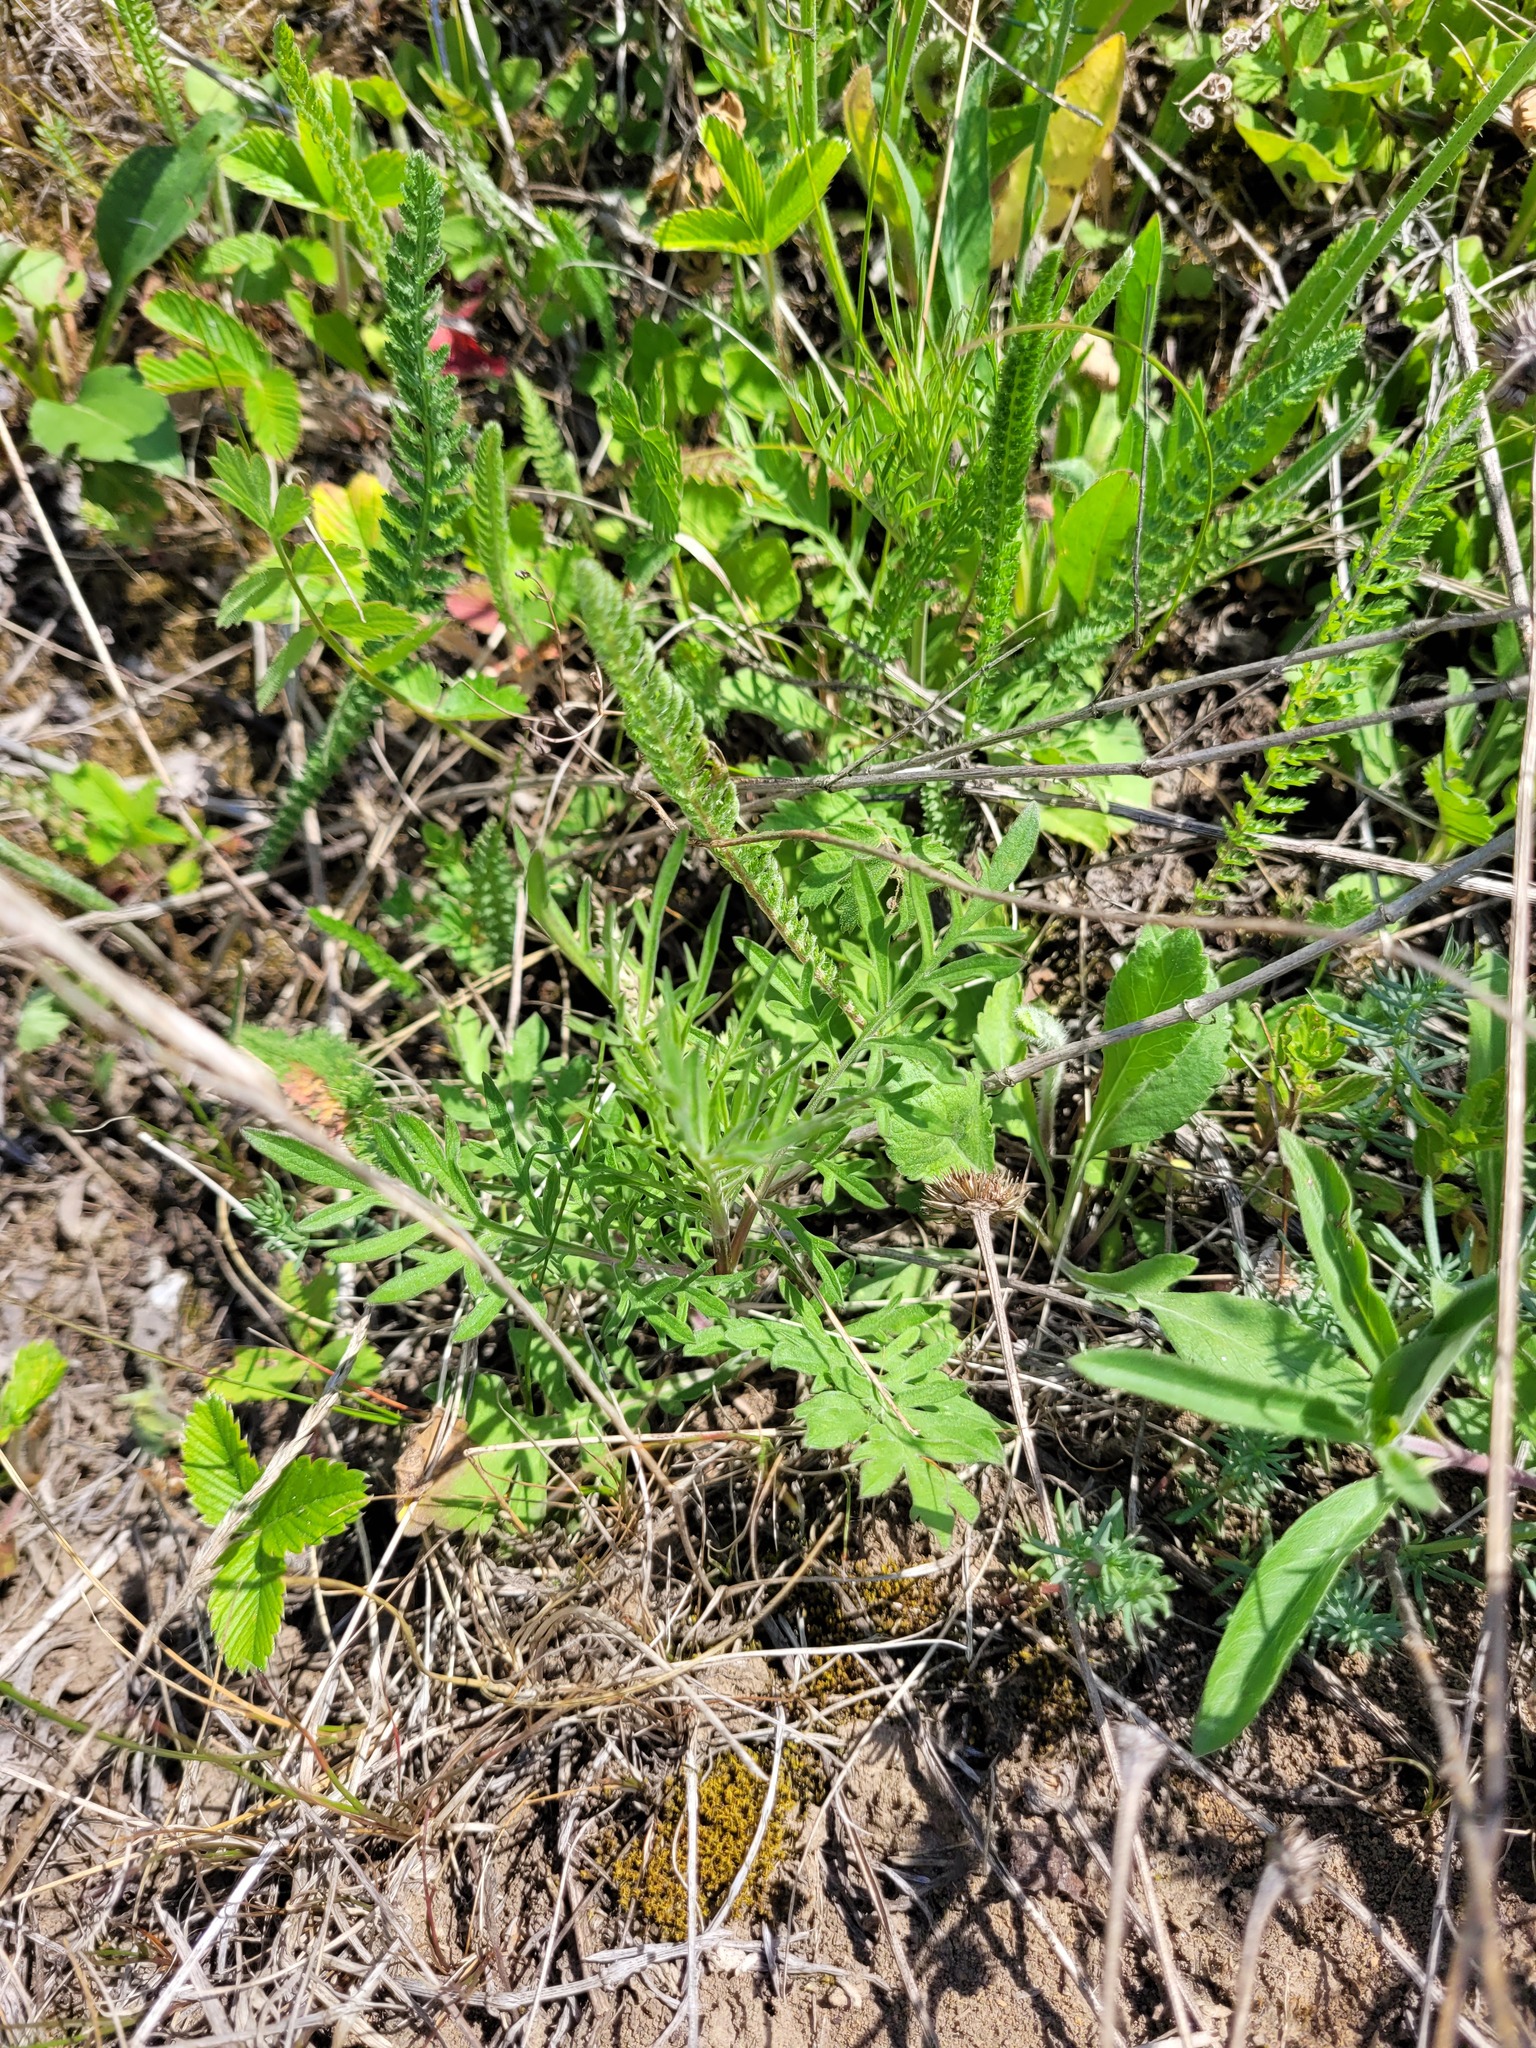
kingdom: Plantae
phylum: Tracheophyta
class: Magnoliopsida
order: Dipsacales
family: Caprifoliaceae
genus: Scabiosa
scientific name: Scabiosa ochroleuca
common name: Cream pincushions
